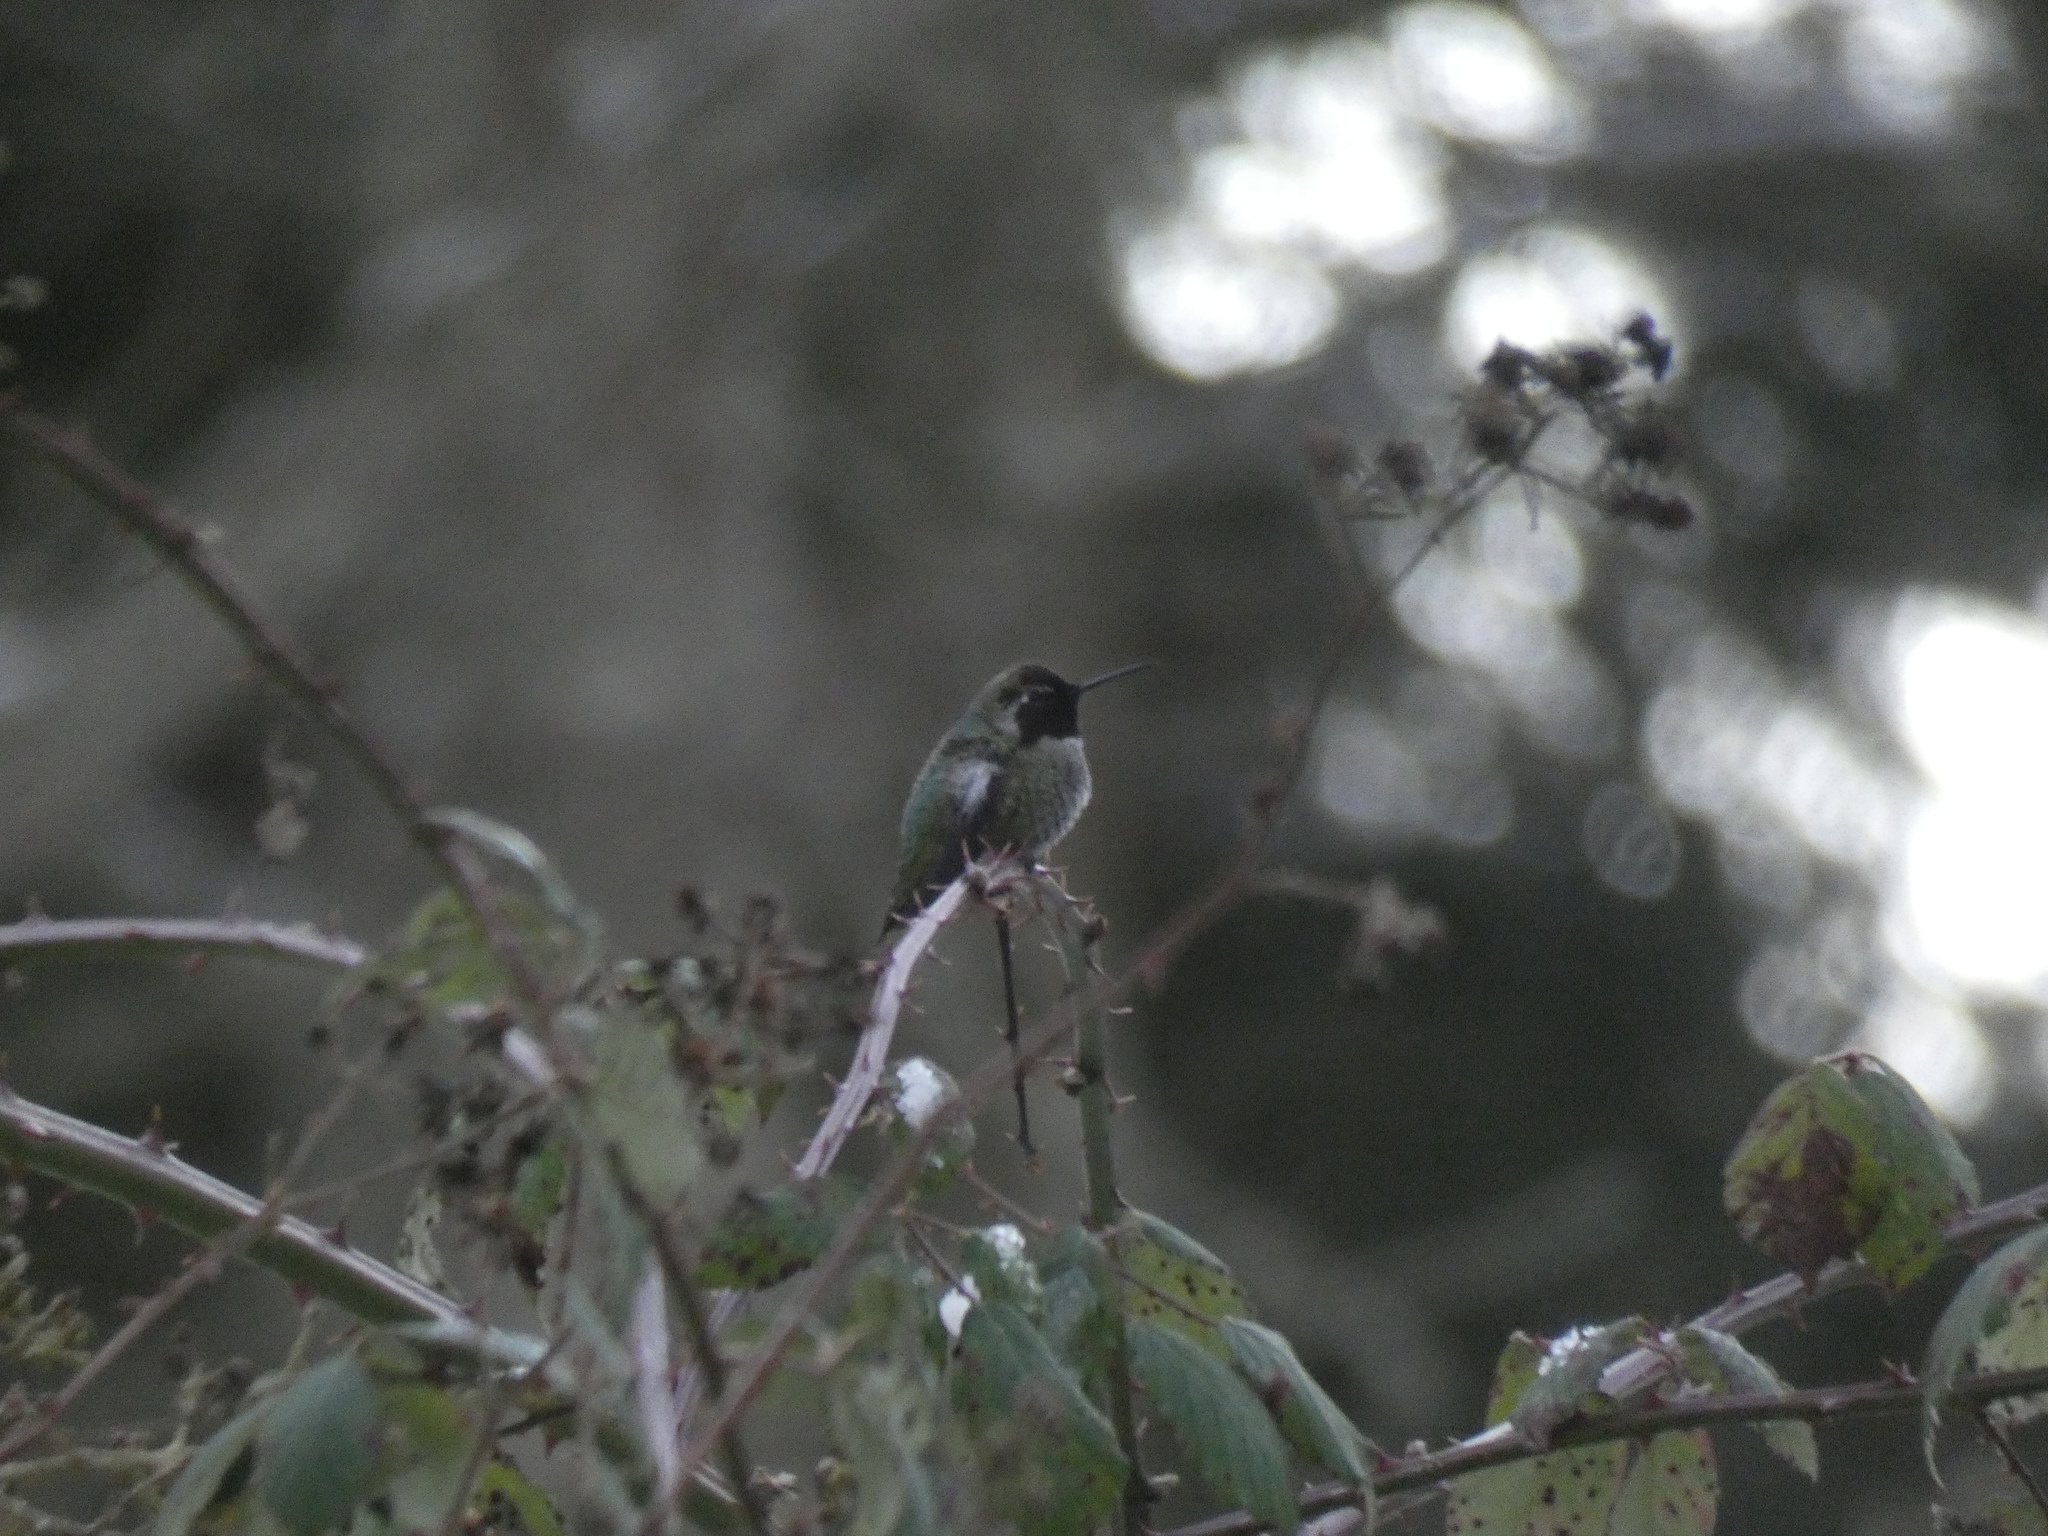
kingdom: Animalia
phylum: Chordata
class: Aves
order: Apodiformes
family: Trochilidae
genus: Calypte
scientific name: Calypte anna
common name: Anna's hummingbird
